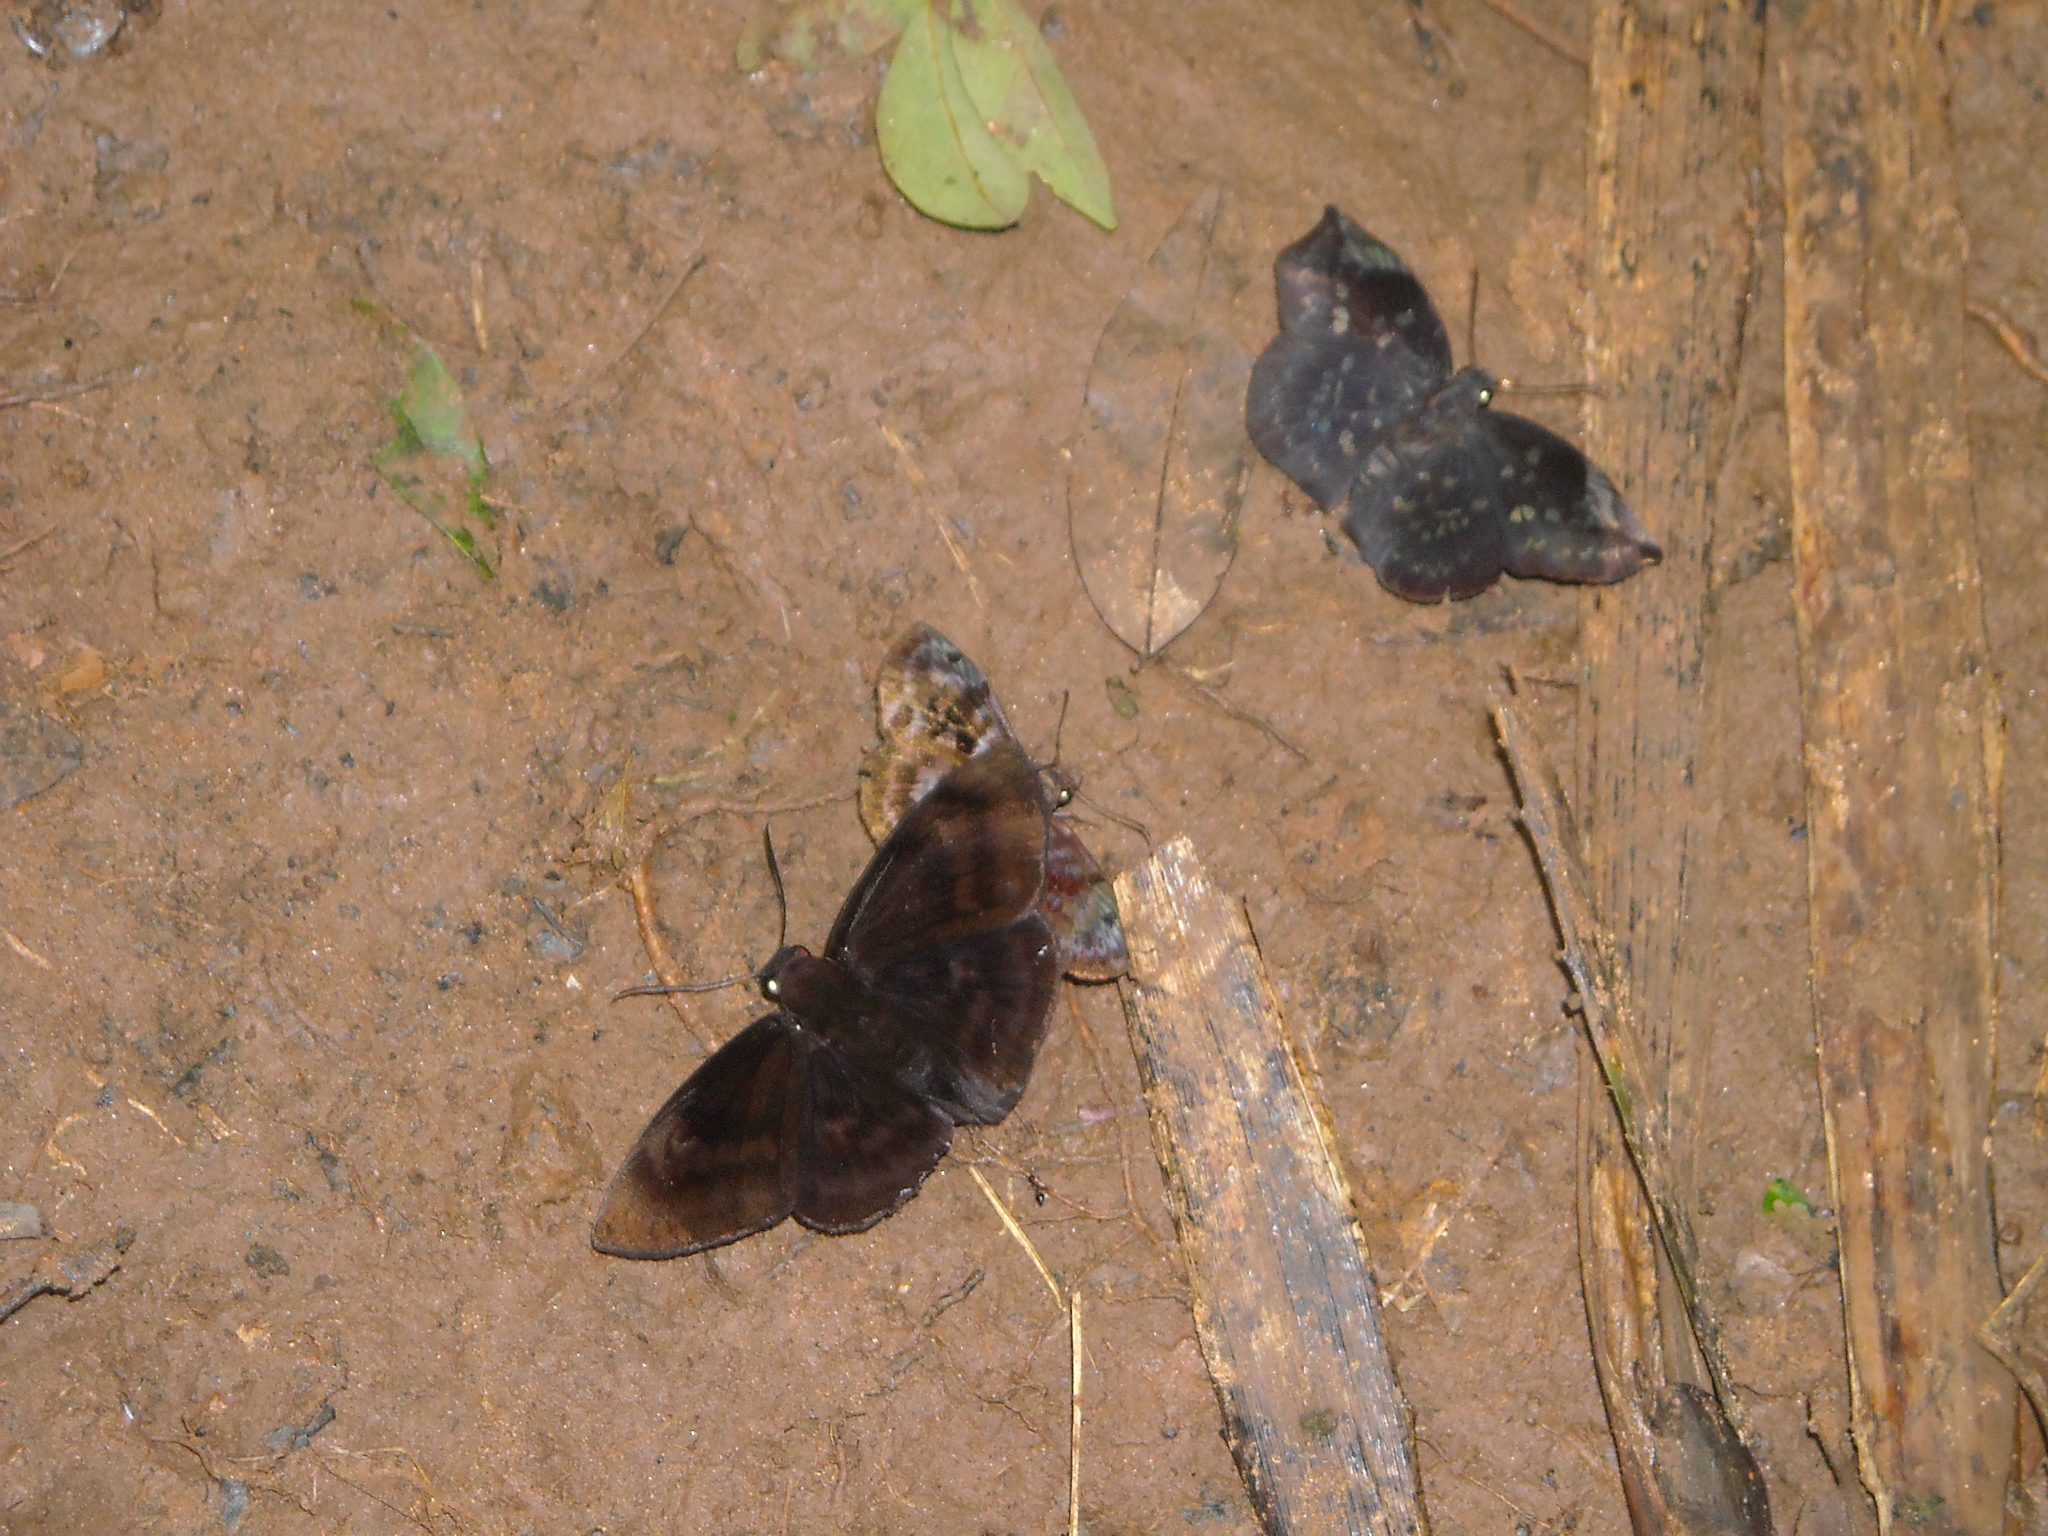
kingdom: Animalia
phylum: Arthropoda
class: Insecta
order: Lepidoptera
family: Hesperiidae
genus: Achlyodes
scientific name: Achlyodes thraso
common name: Sickle-winged skipper
